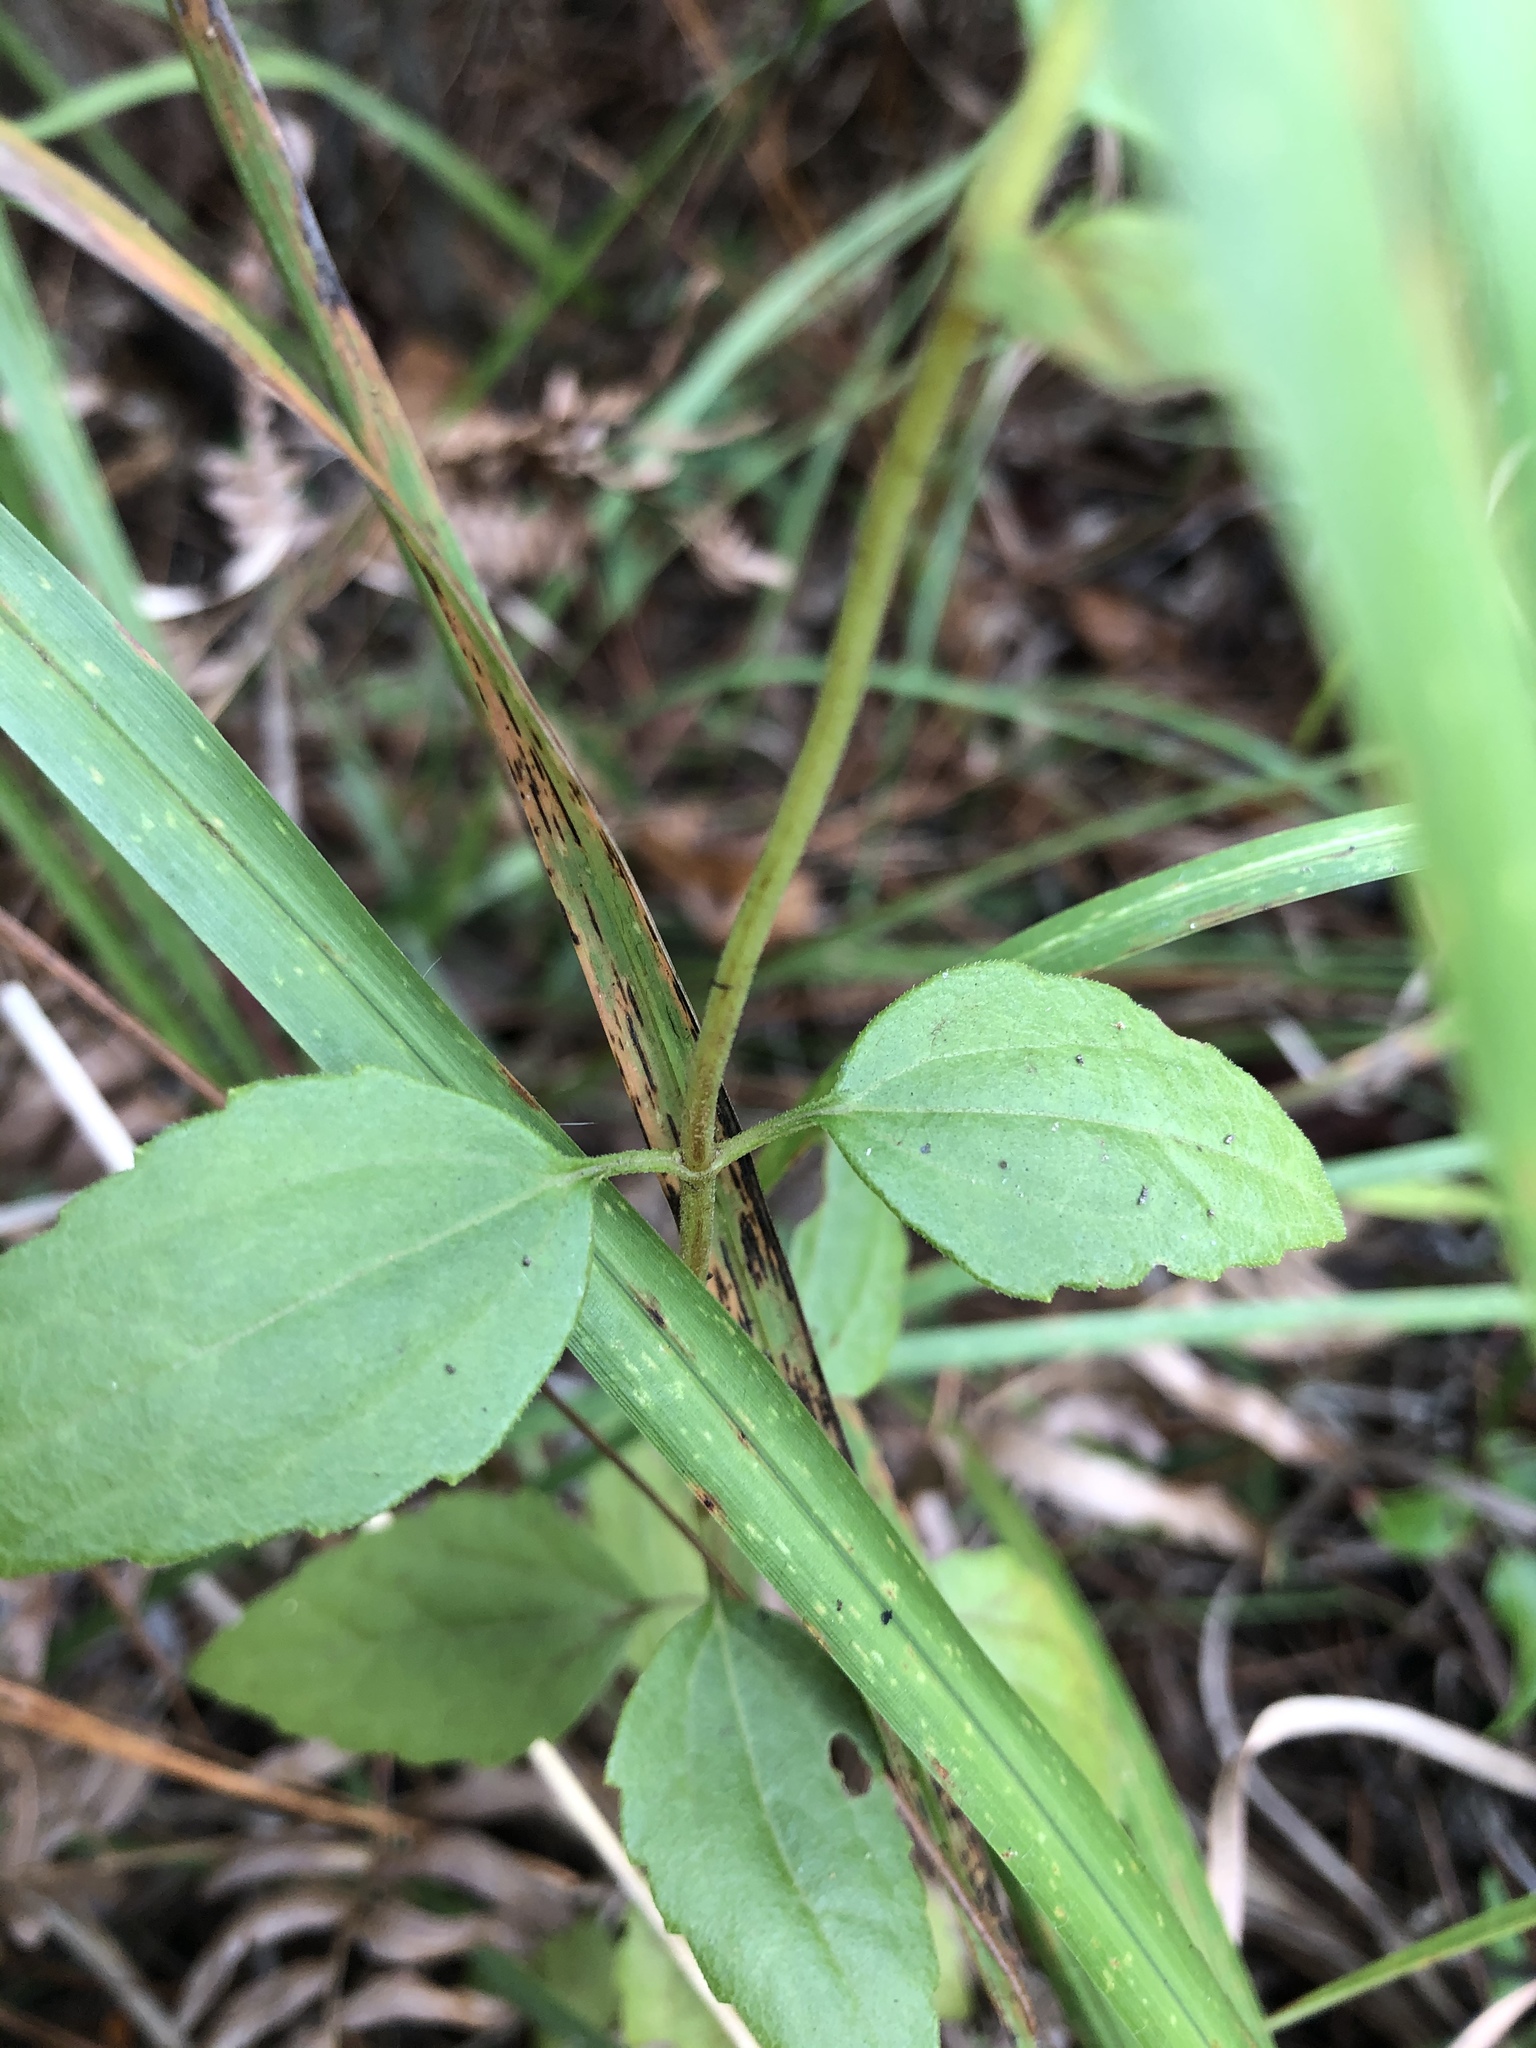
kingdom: Plantae
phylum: Tracheophyta
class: Magnoliopsida
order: Asterales
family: Asteraceae
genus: Ageratina
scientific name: Ageratina aromatica
